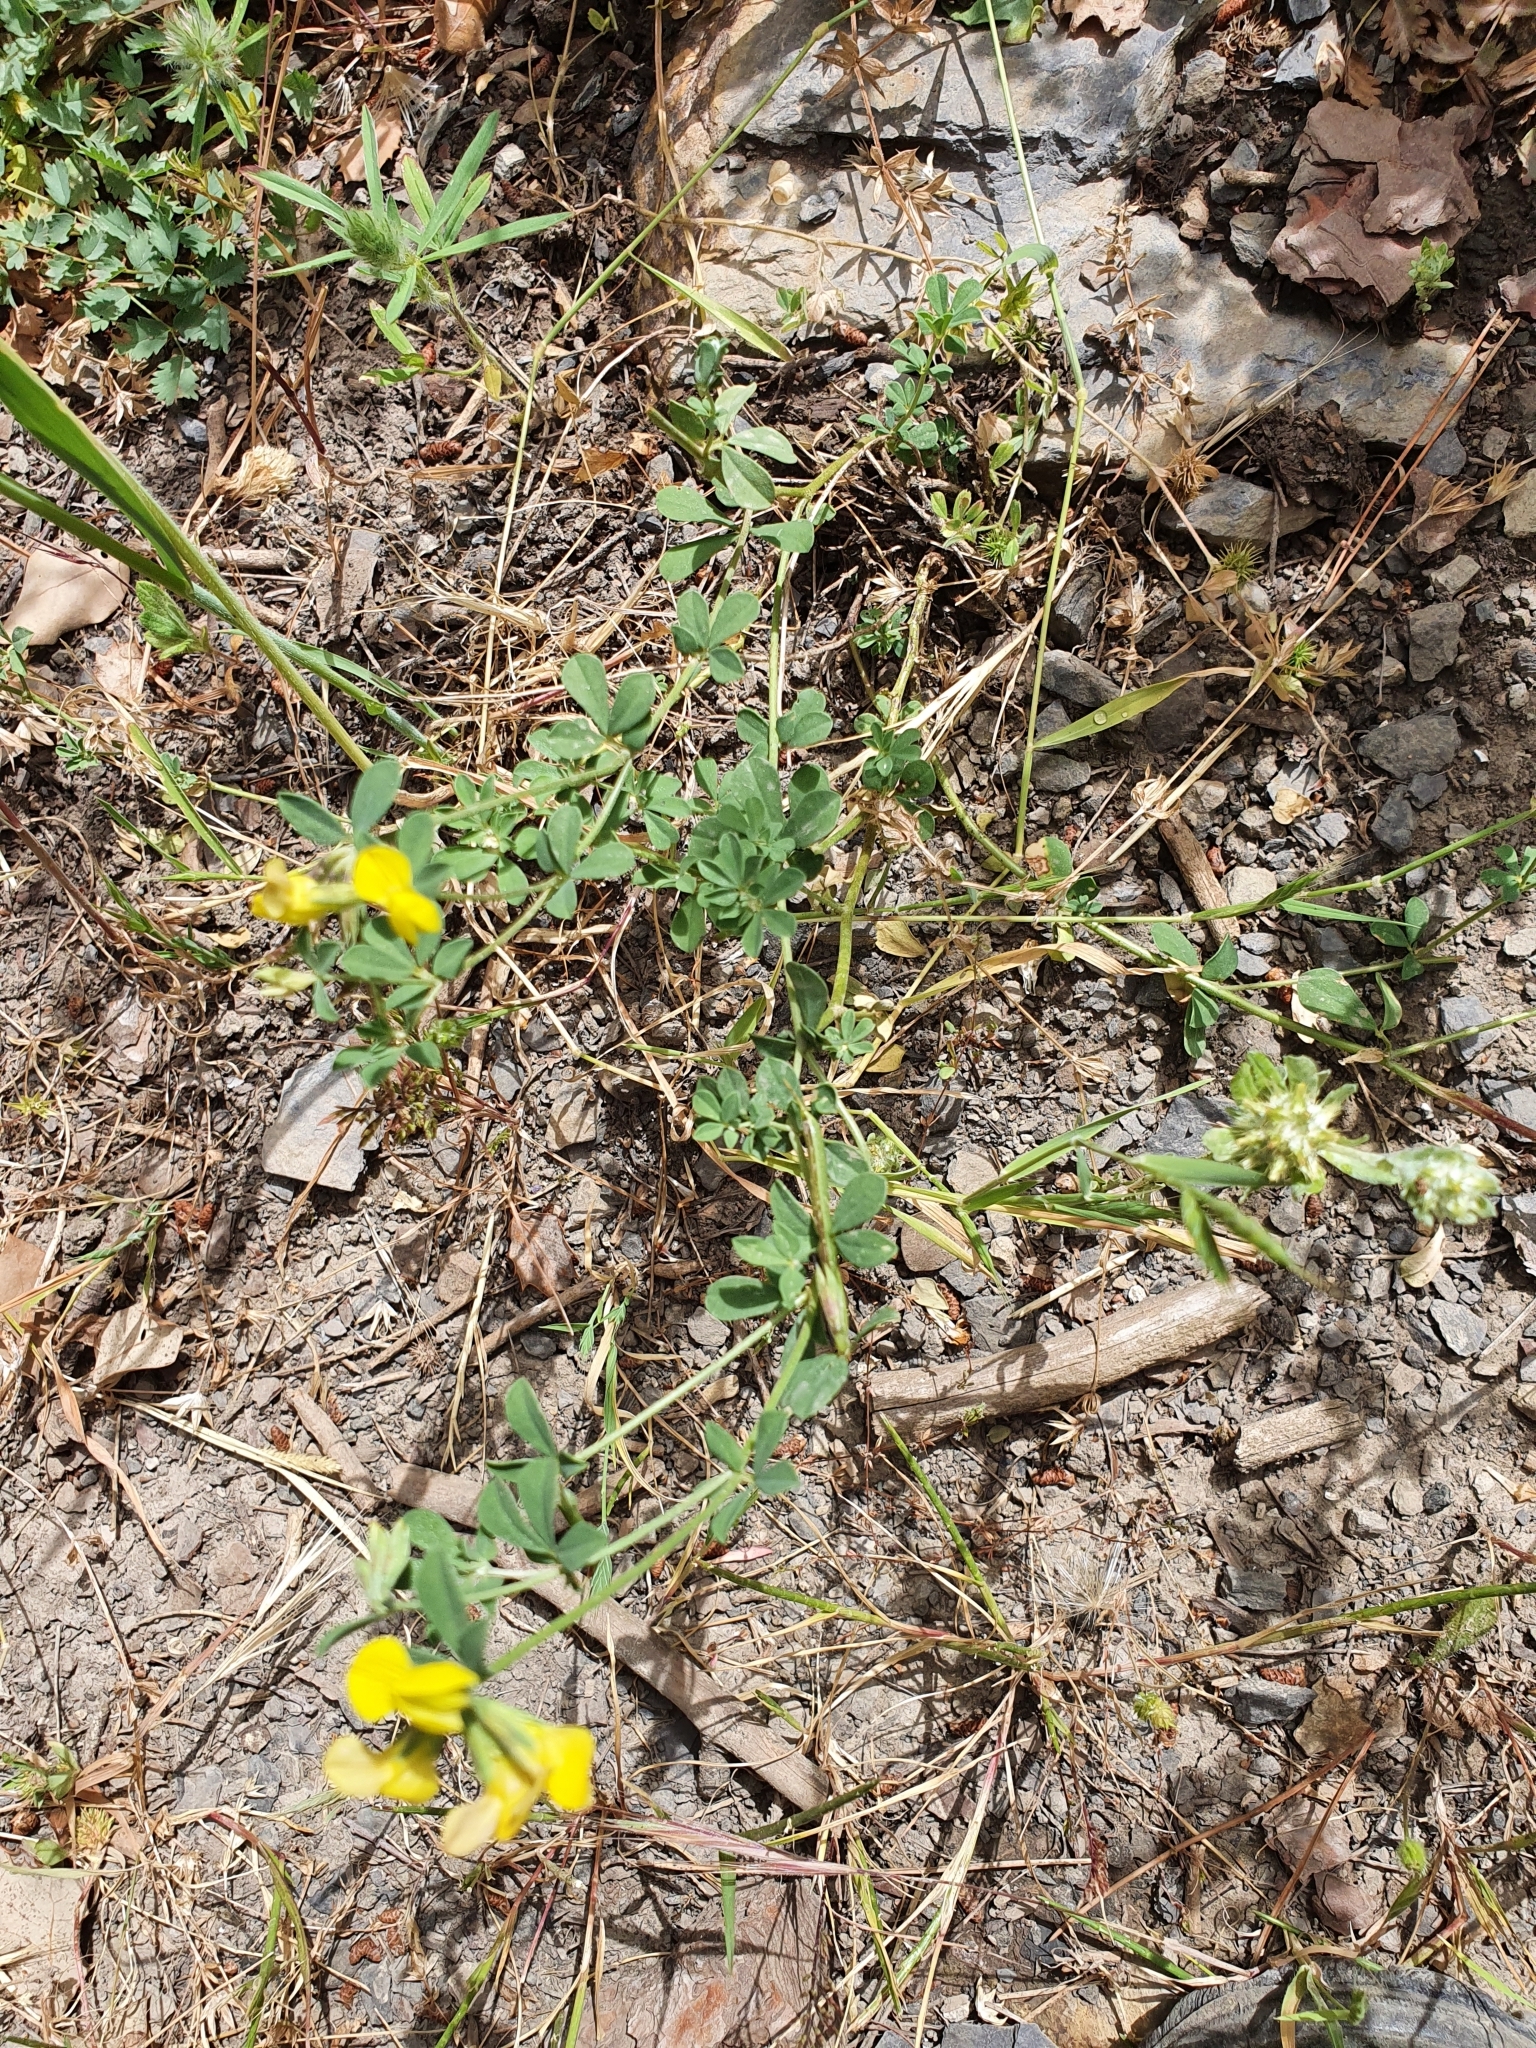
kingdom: Plantae
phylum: Tracheophyta
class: Magnoliopsida
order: Fabales
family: Fabaceae
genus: Lotus
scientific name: Lotus longisiliquosus
